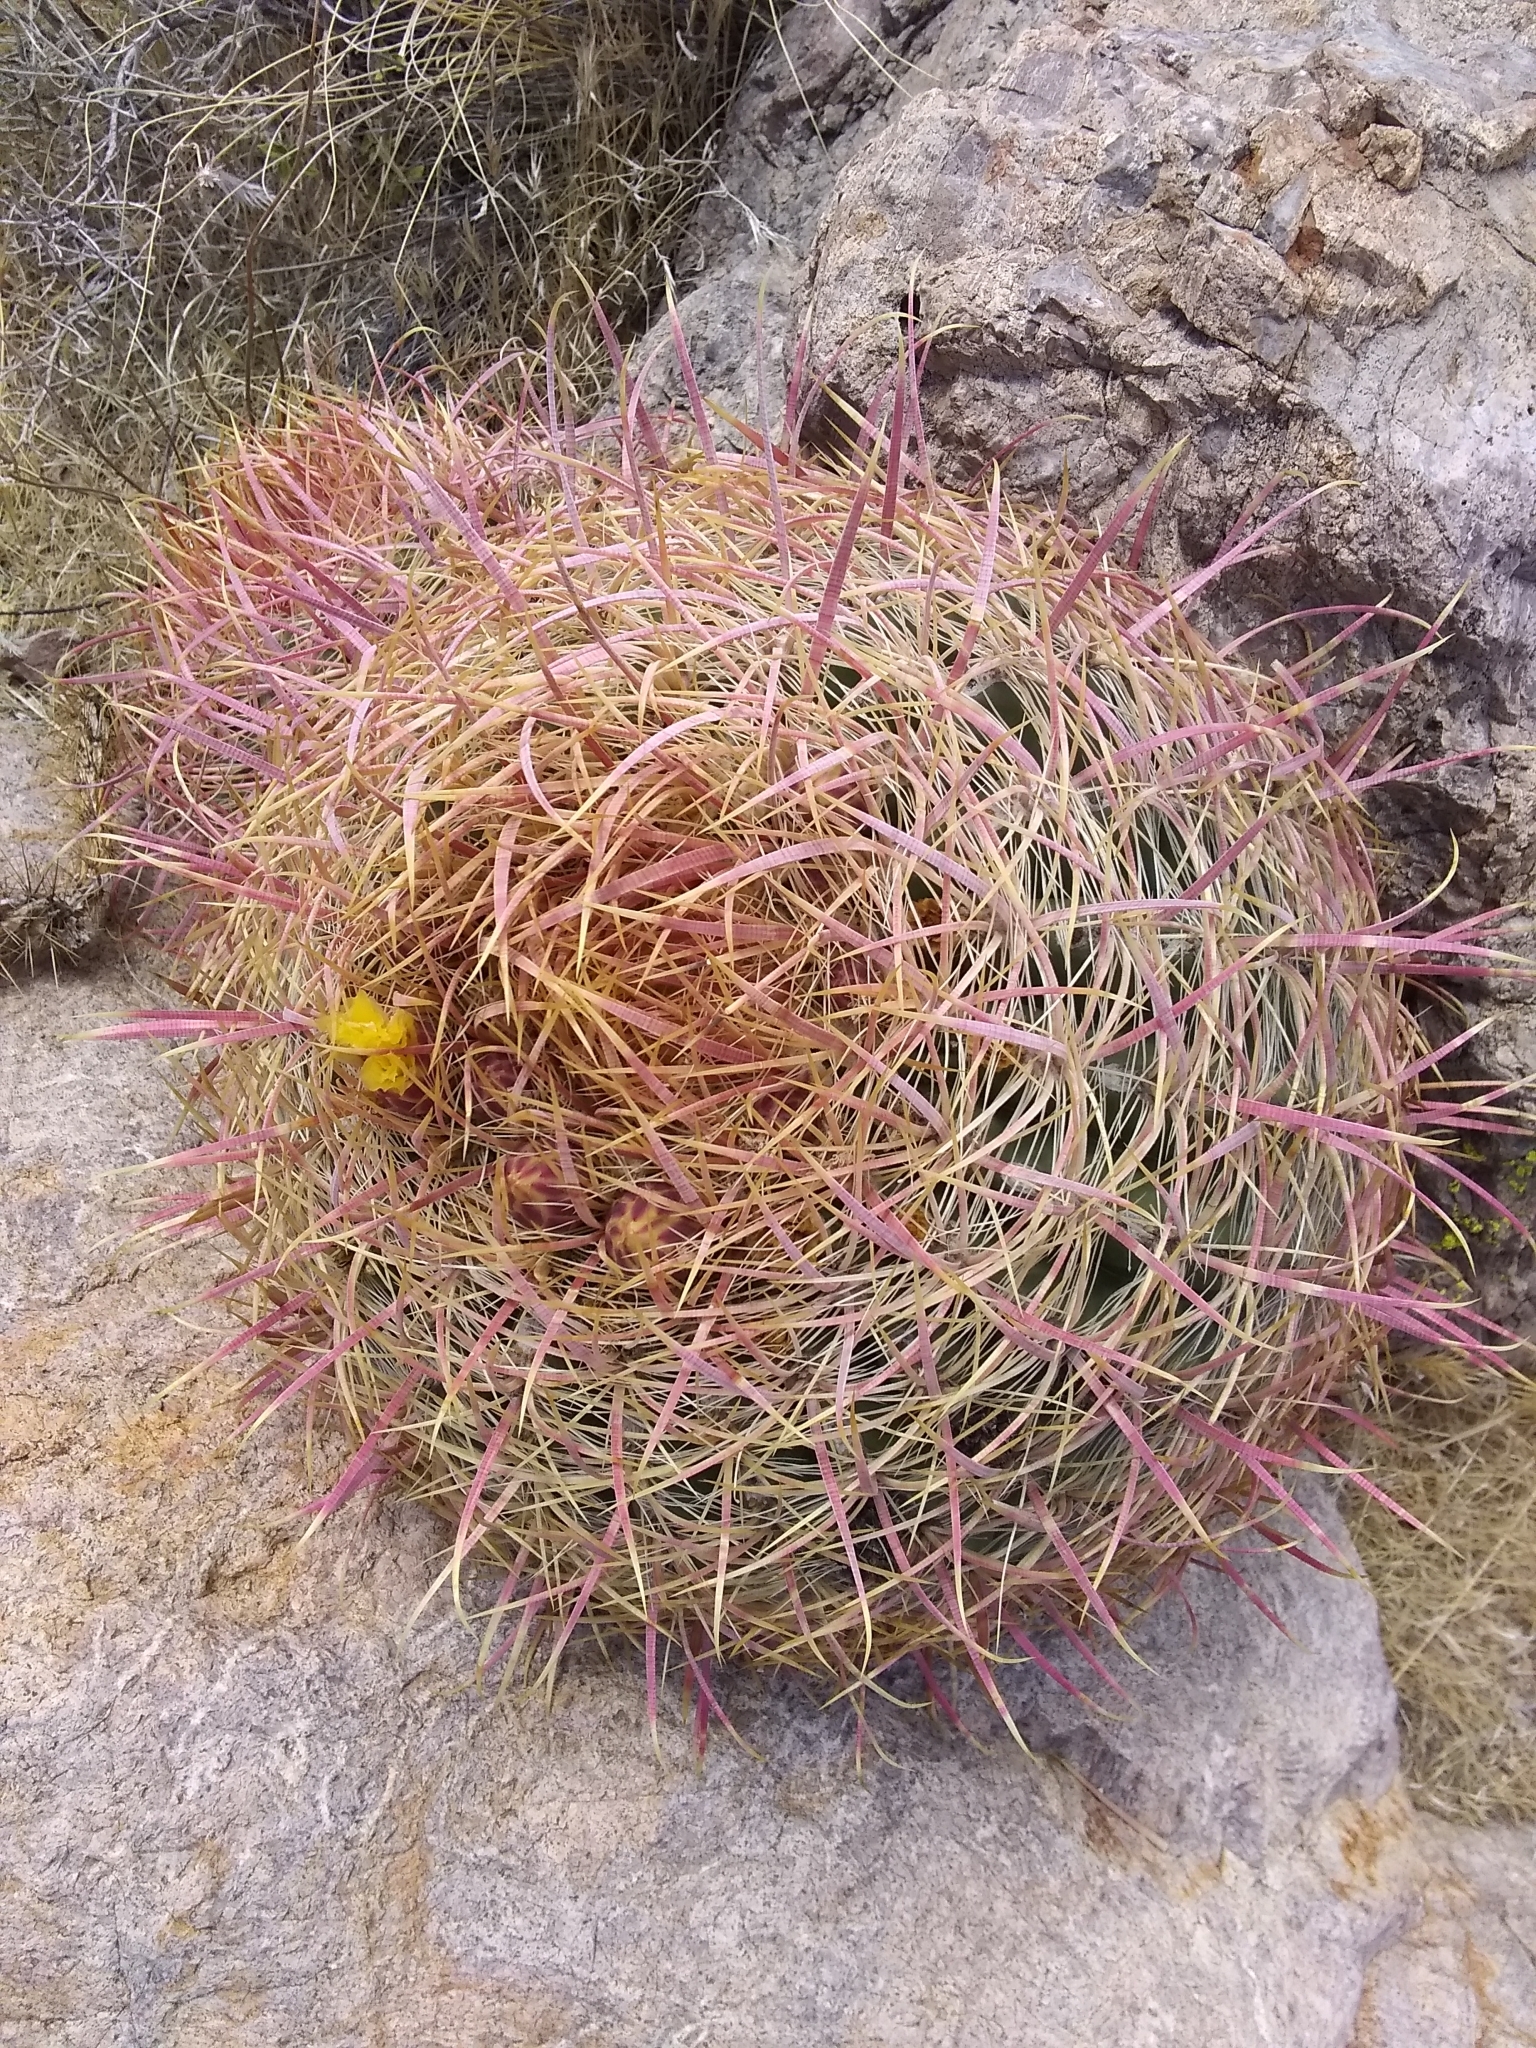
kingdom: Plantae
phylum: Tracheophyta
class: Magnoliopsida
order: Caryophyllales
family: Cactaceae
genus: Ferocactus
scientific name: Ferocactus cylindraceus
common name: California barrel cactus
